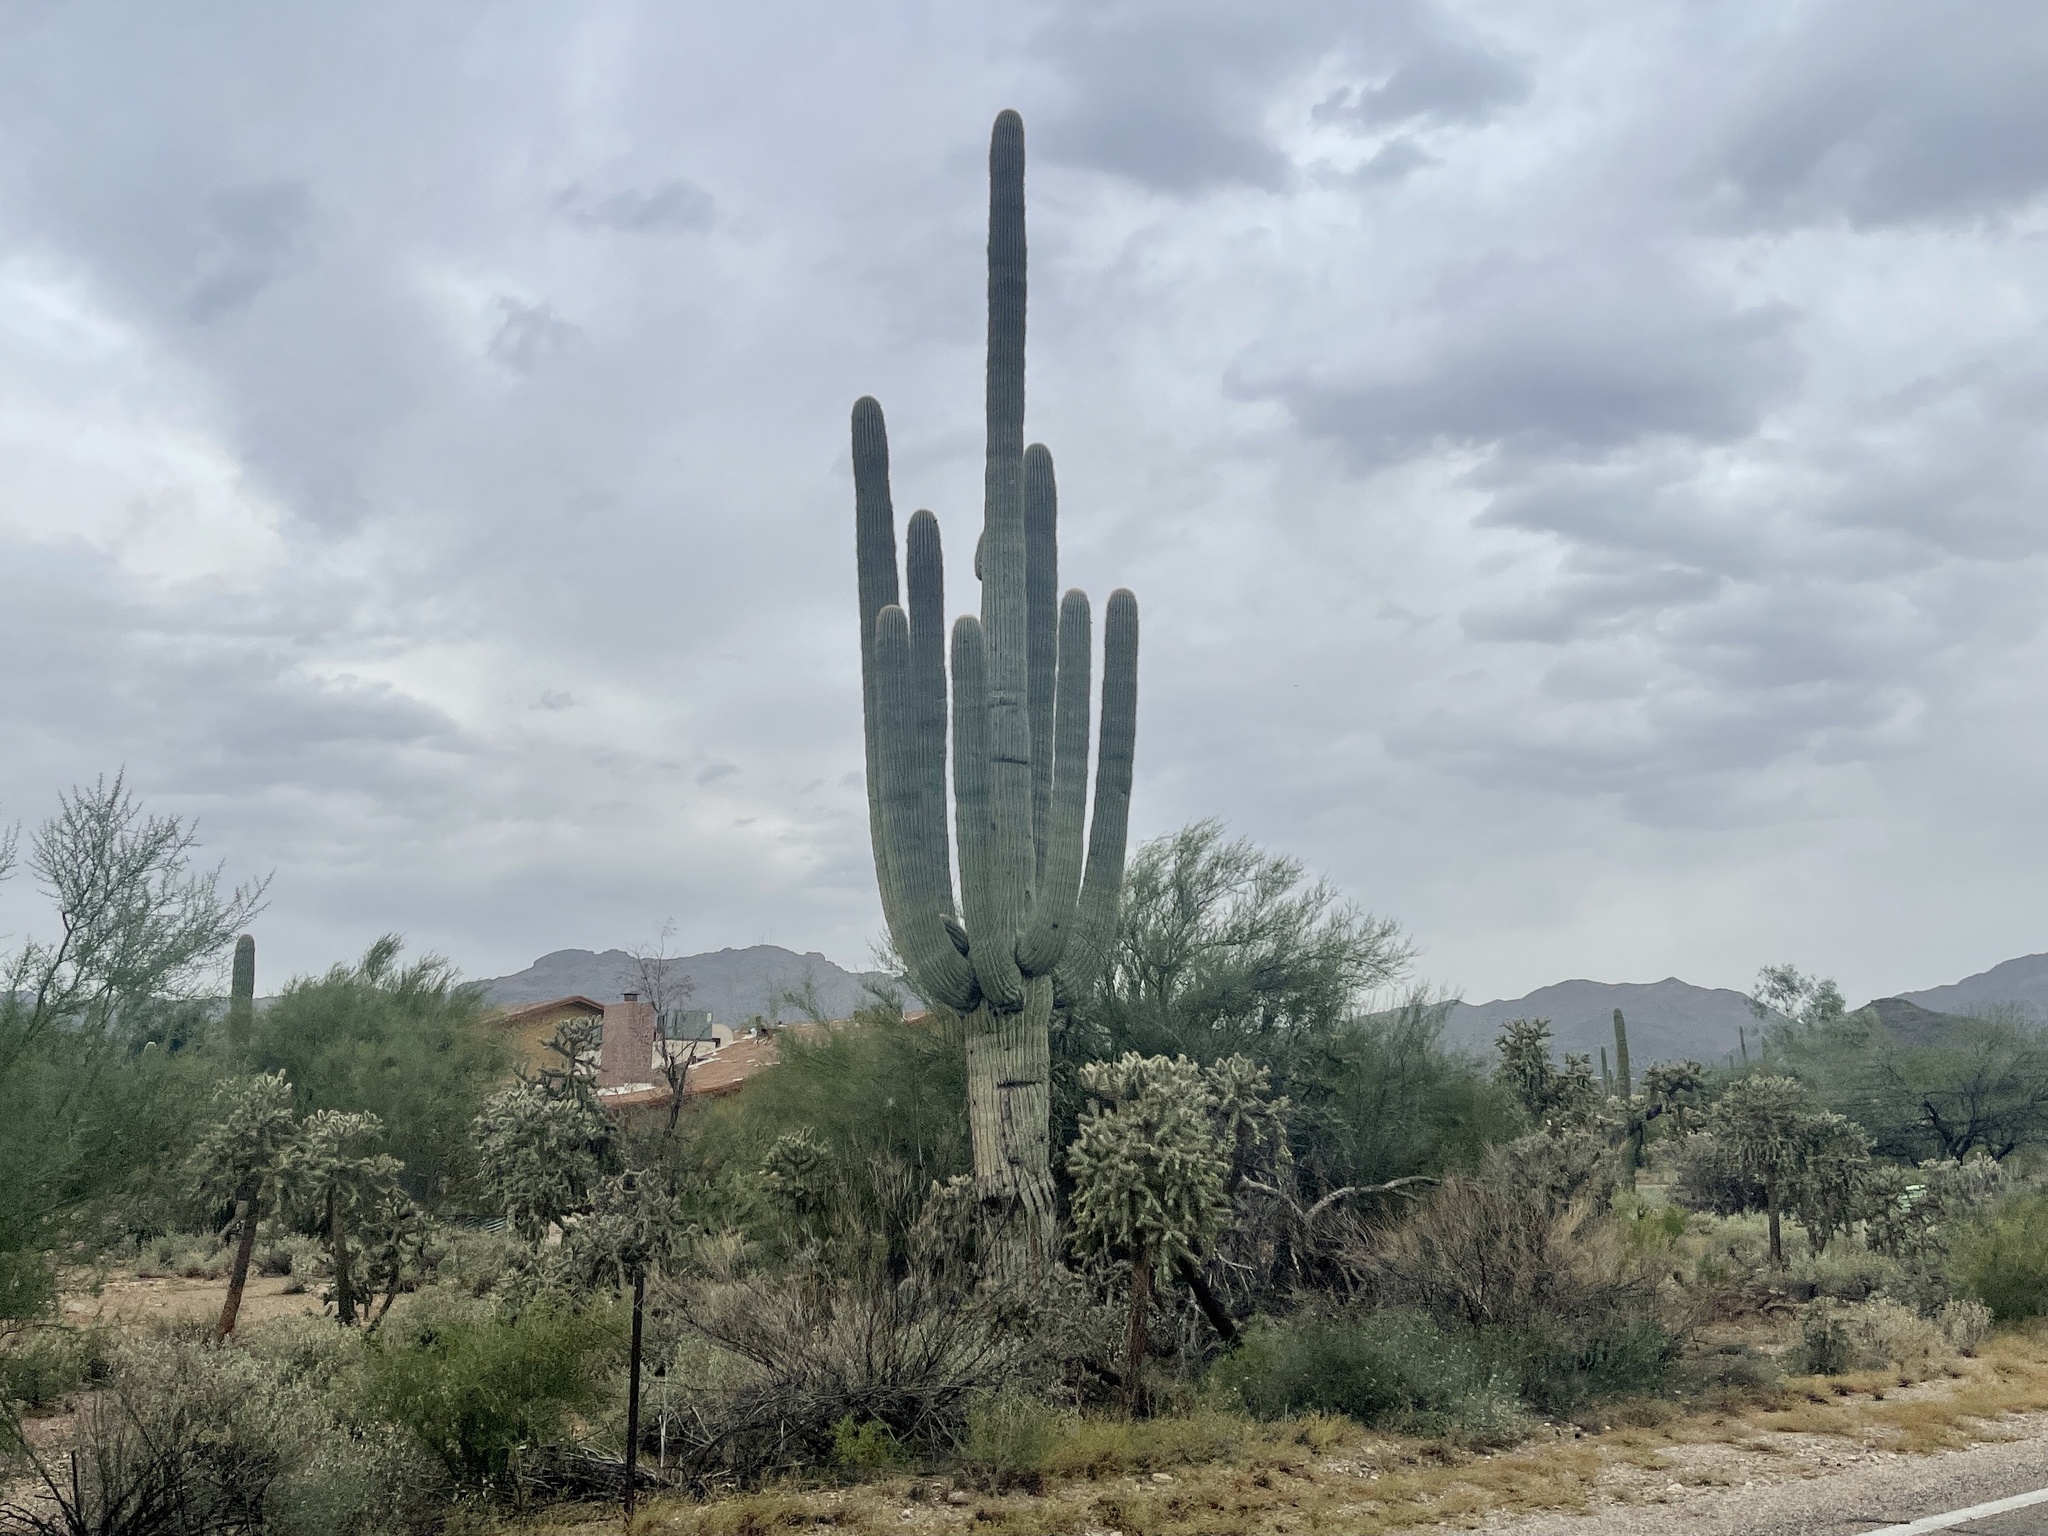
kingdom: Plantae
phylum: Tracheophyta
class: Magnoliopsida
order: Caryophyllales
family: Cactaceae
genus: Carnegiea
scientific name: Carnegiea gigantea
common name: Saguaro
